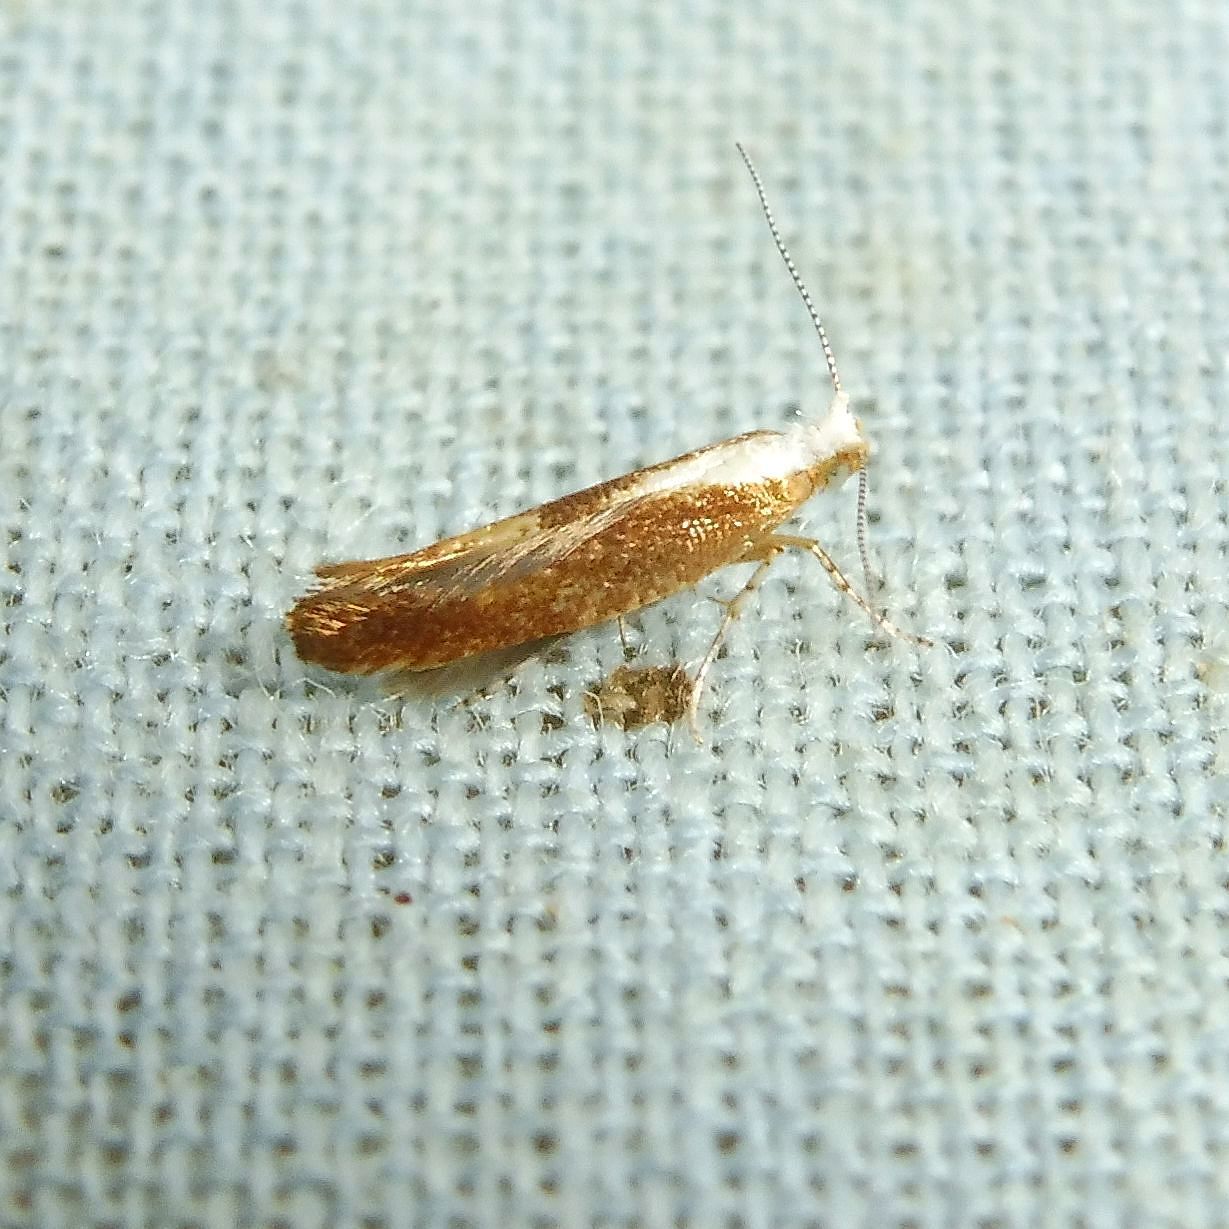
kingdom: Animalia
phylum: Arthropoda
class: Insecta
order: Lepidoptera
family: Argyresthiidae
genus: Argyresthia
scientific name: Argyresthia albistria
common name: Purple argent
